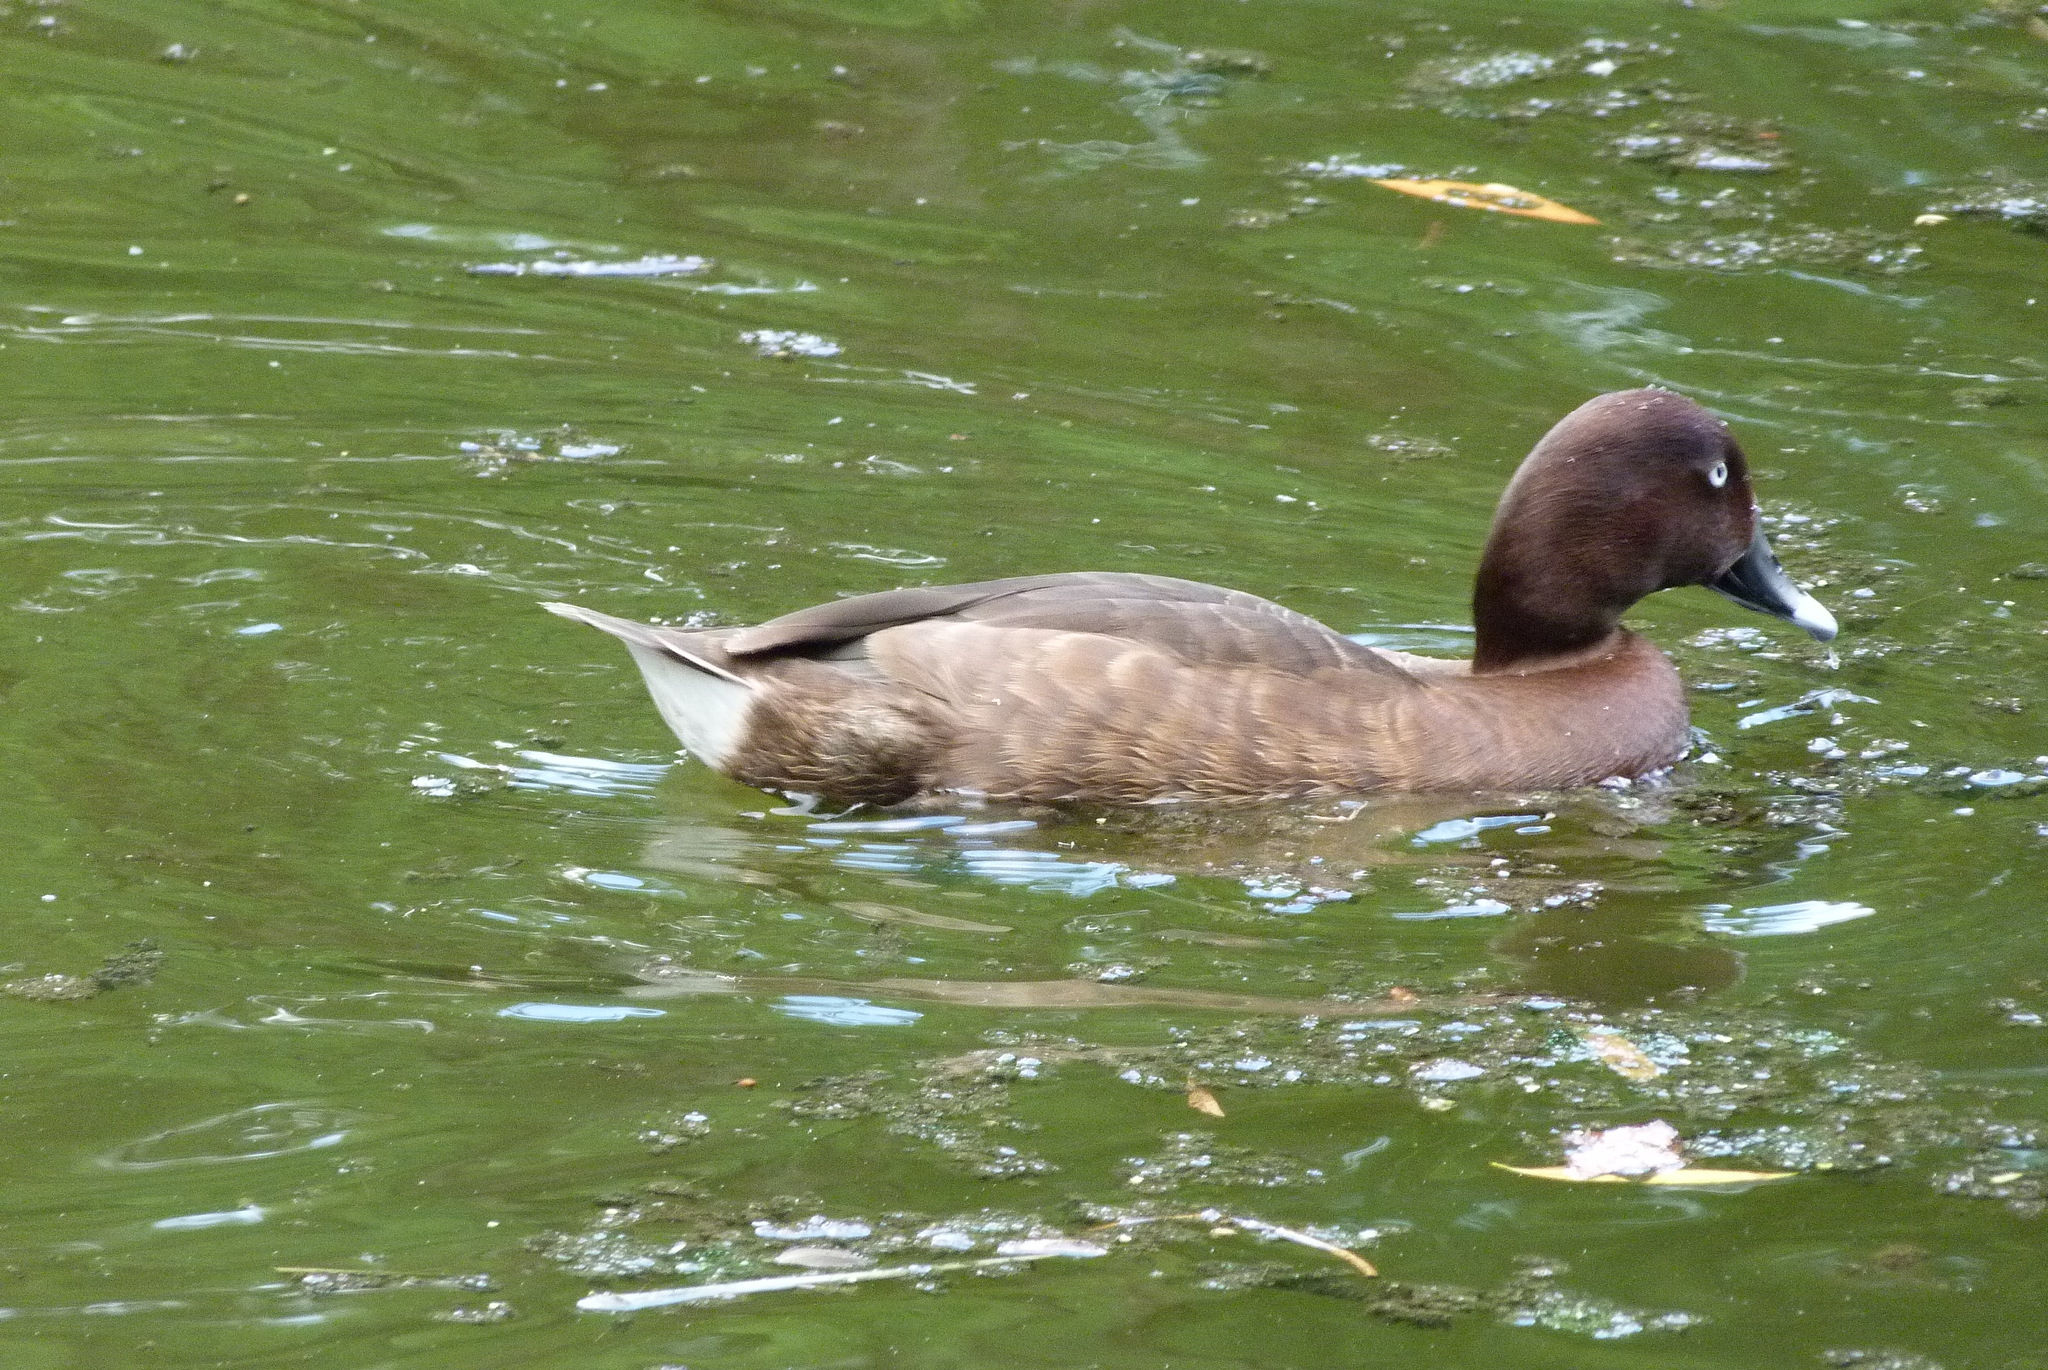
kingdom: Animalia
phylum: Chordata
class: Aves
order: Anseriformes
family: Anatidae
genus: Aythya
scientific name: Aythya australis
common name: Hardhead
